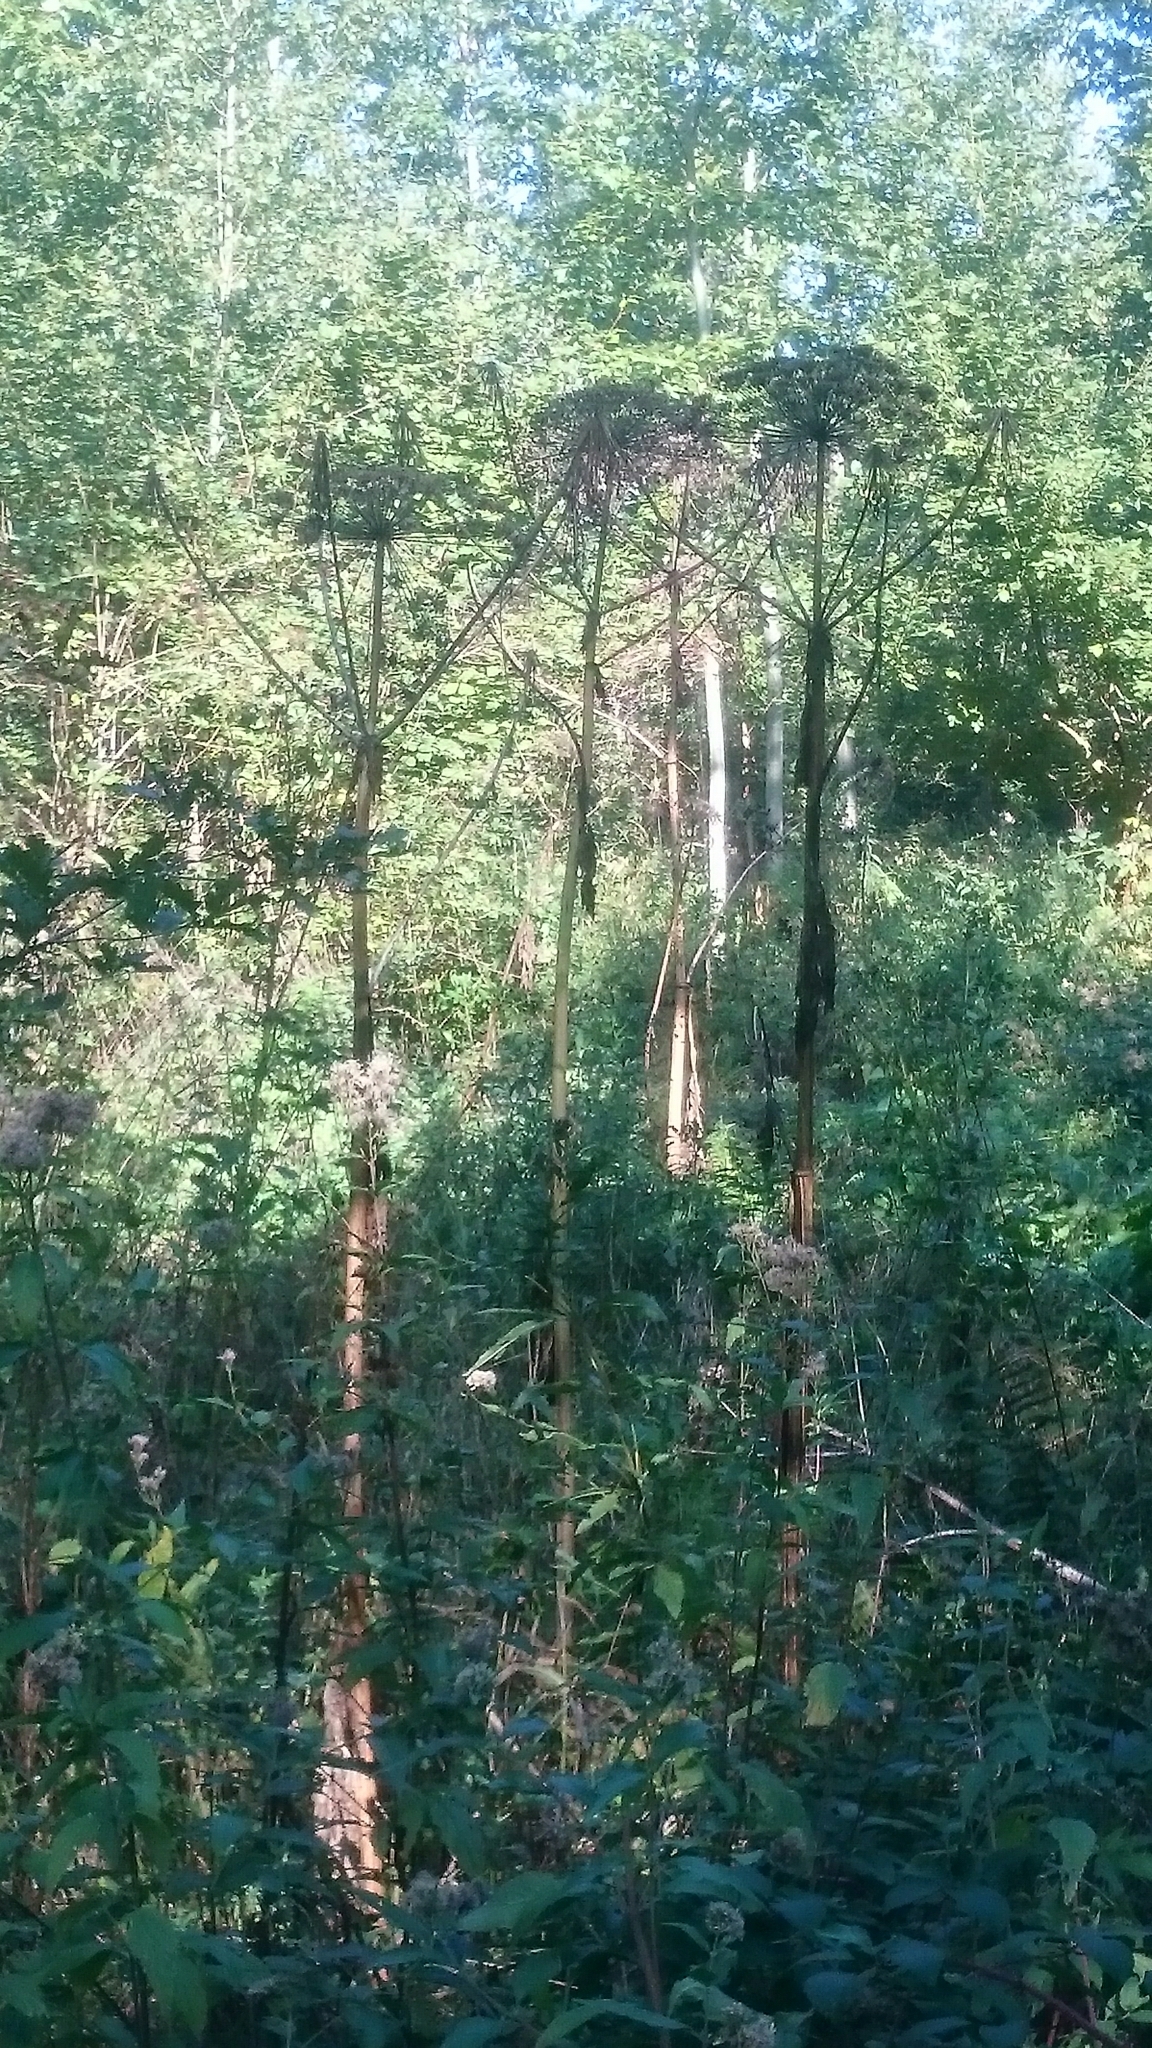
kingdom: Plantae
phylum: Tracheophyta
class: Magnoliopsida
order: Apiales
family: Apiaceae
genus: Heracleum
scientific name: Heracleum mantegazzianum
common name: Giant hogweed
